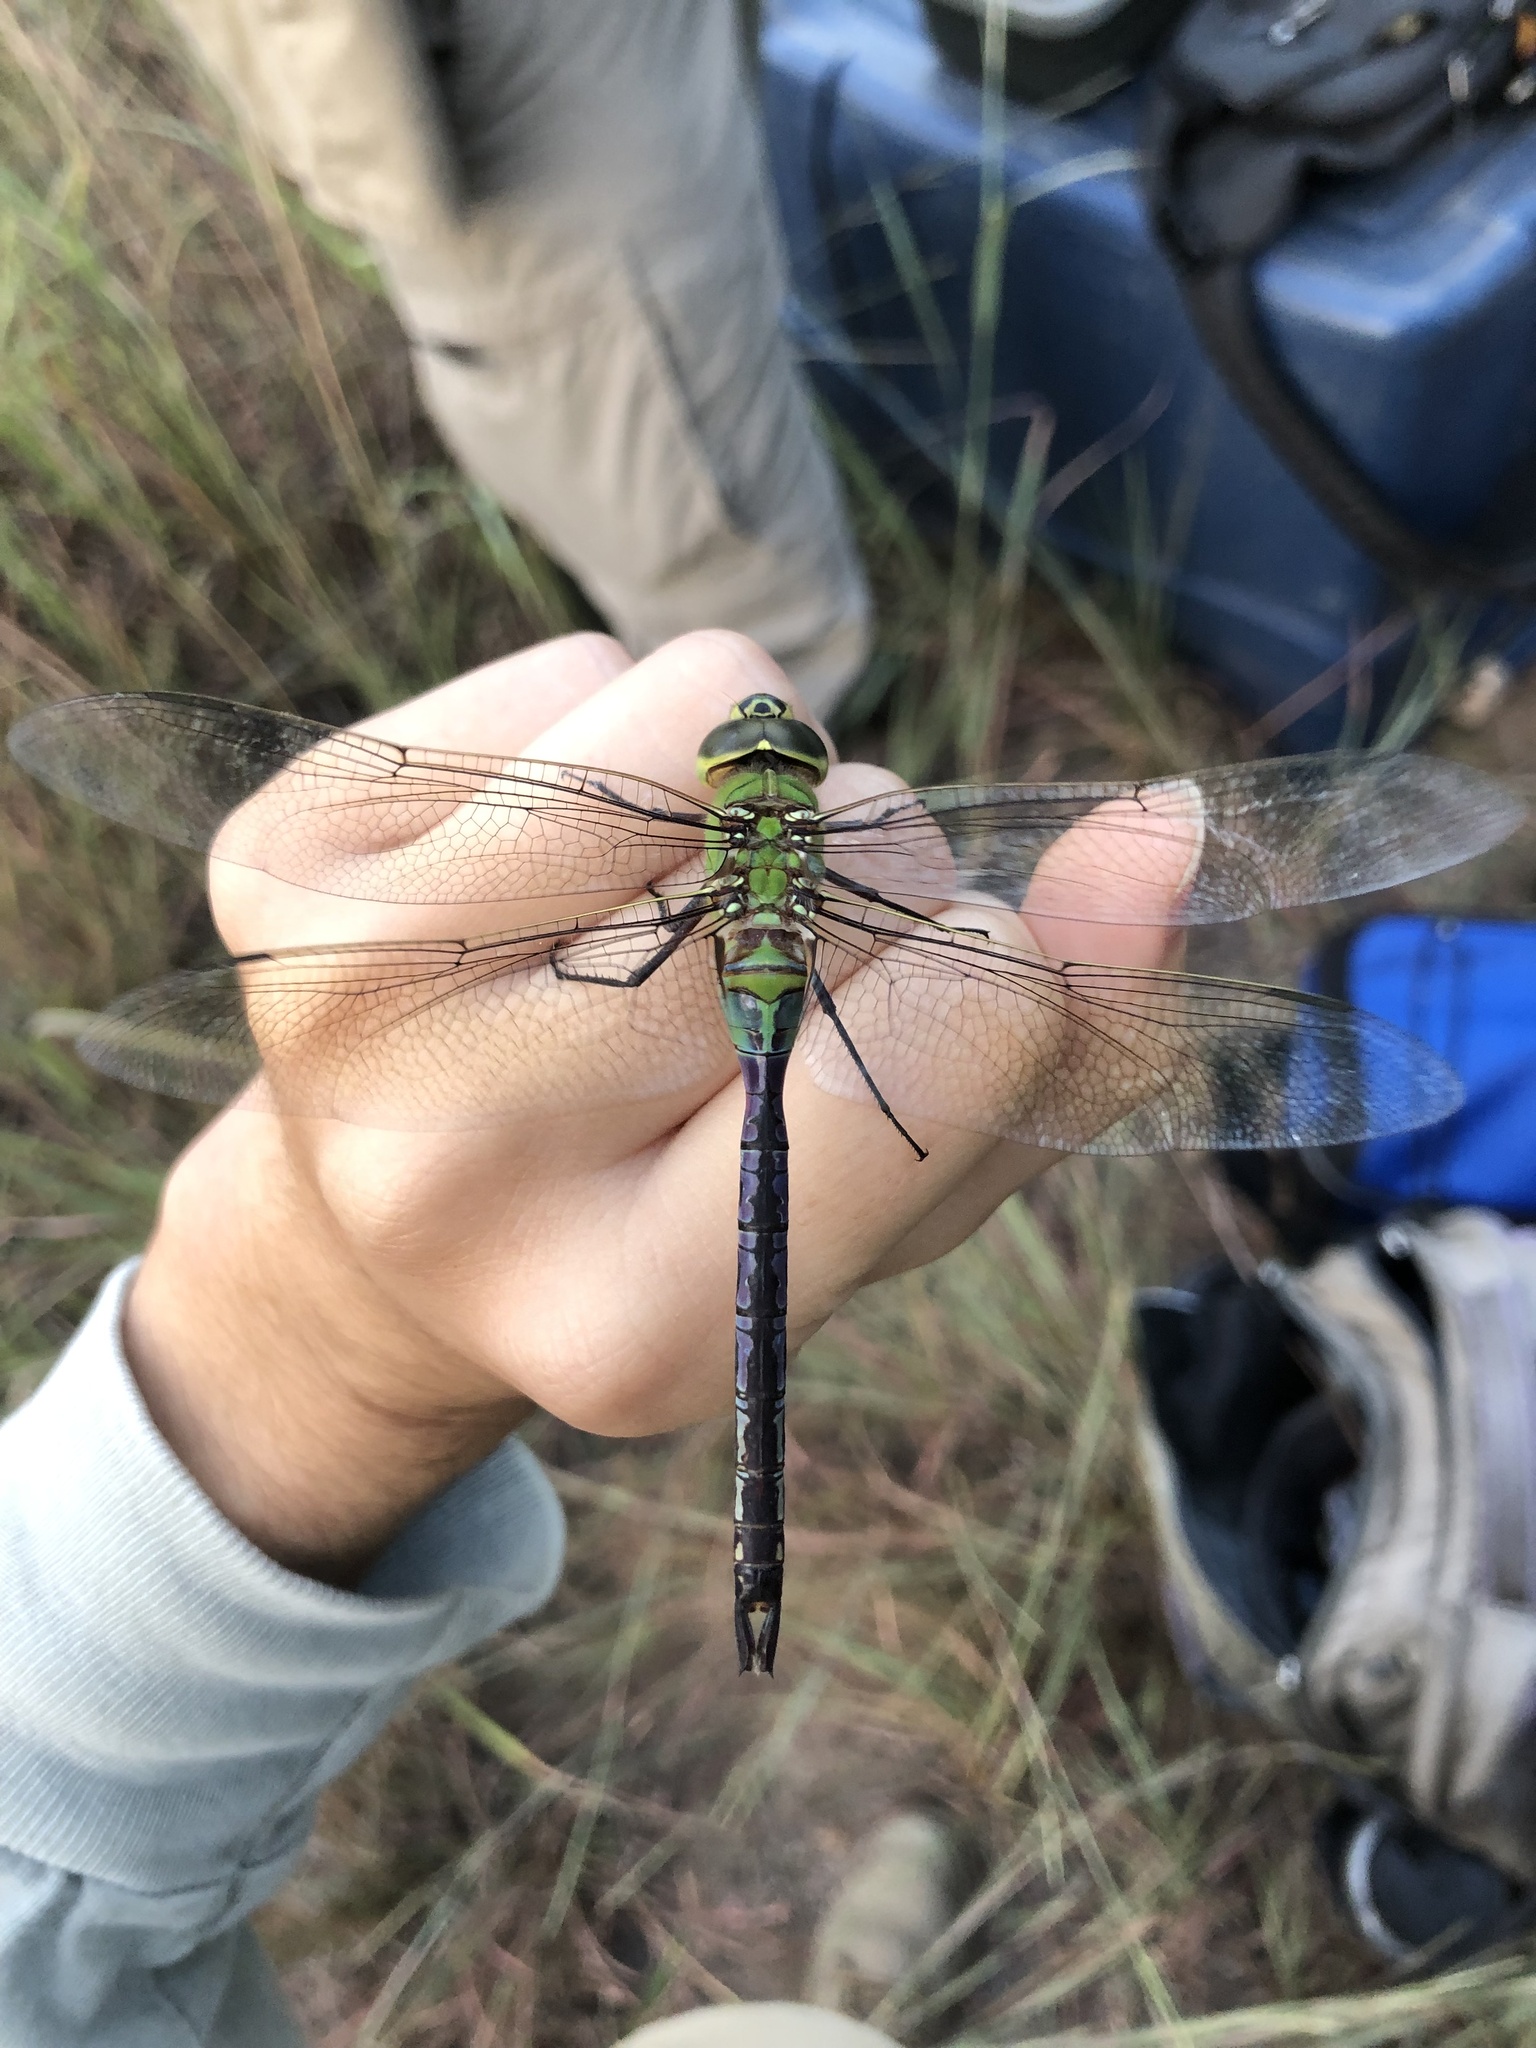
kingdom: Animalia
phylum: Arthropoda
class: Insecta
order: Odonata
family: Aeshnidae
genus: Anax
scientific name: Anax junius
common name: Common green darner
